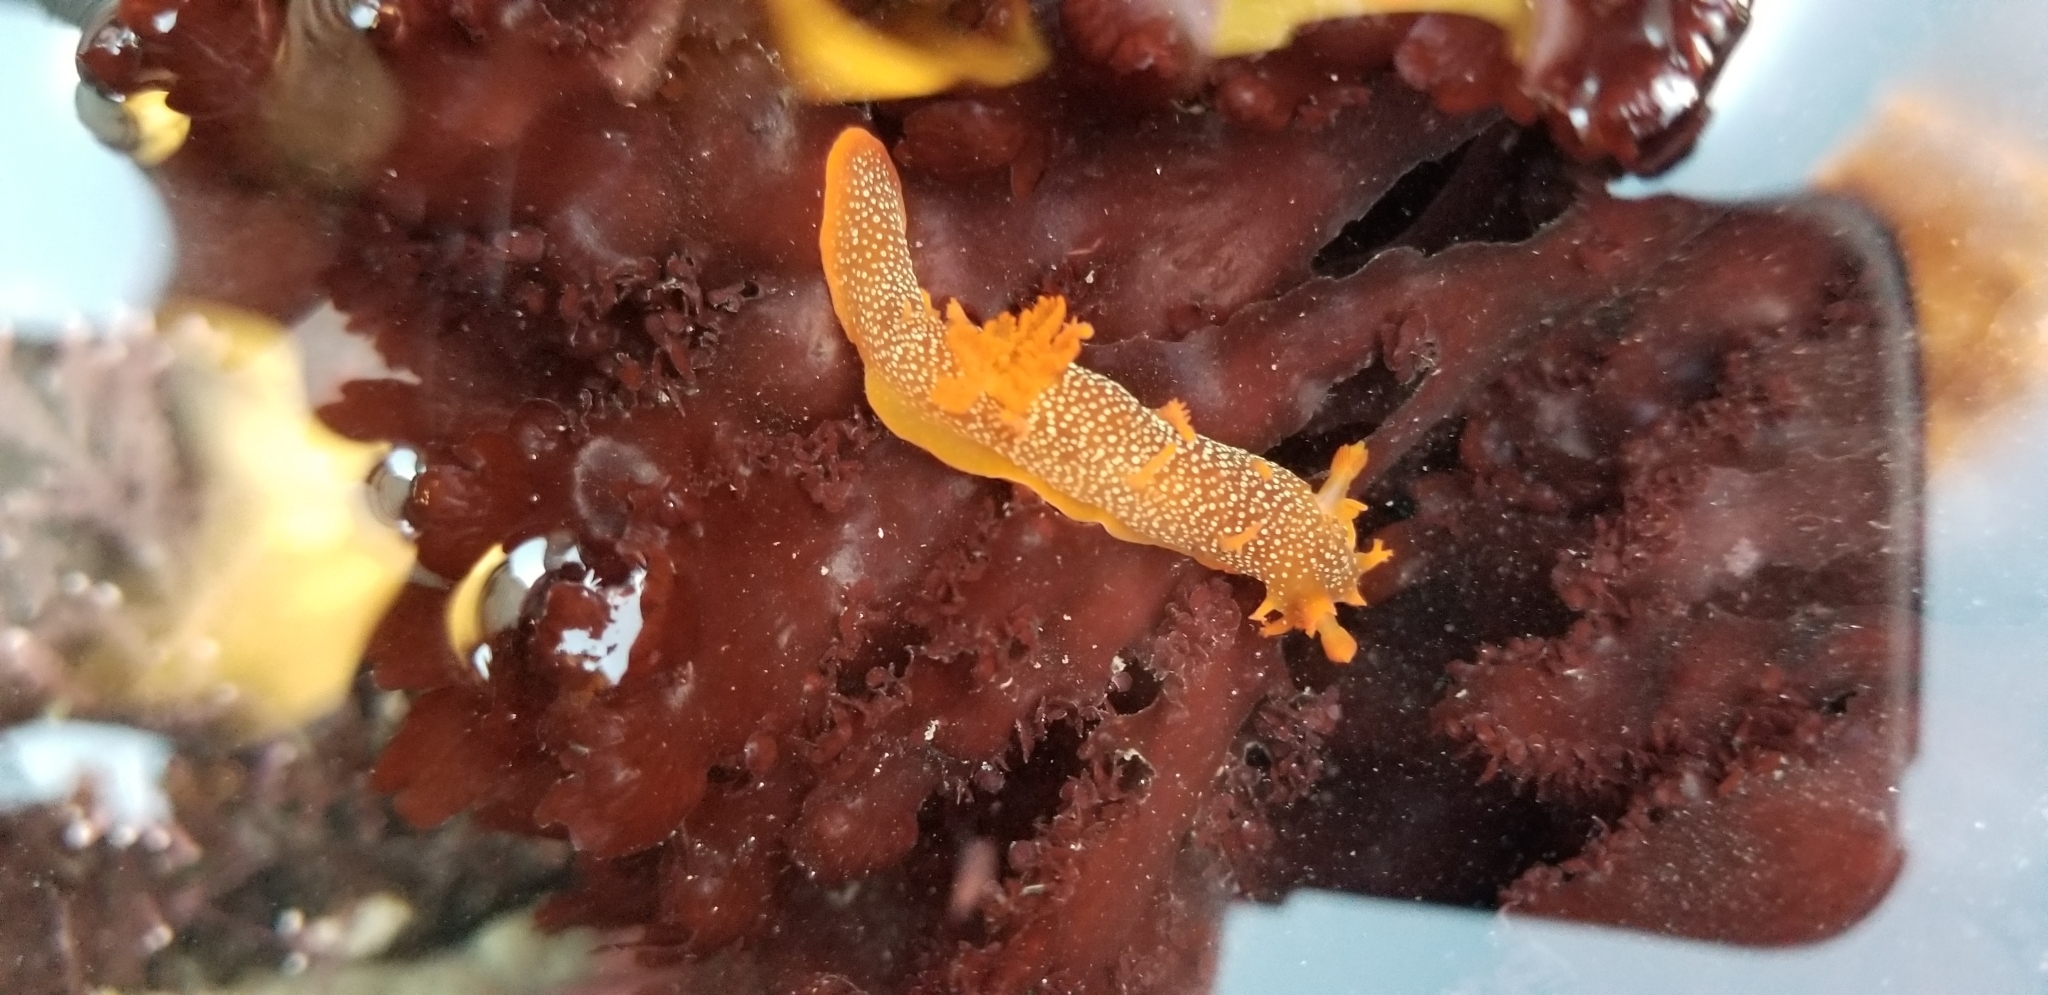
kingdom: Animalia
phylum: Mollusca
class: Gastropoda
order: Nudibranchia
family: Polyceridae
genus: Triopha
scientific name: Triopha maculata
